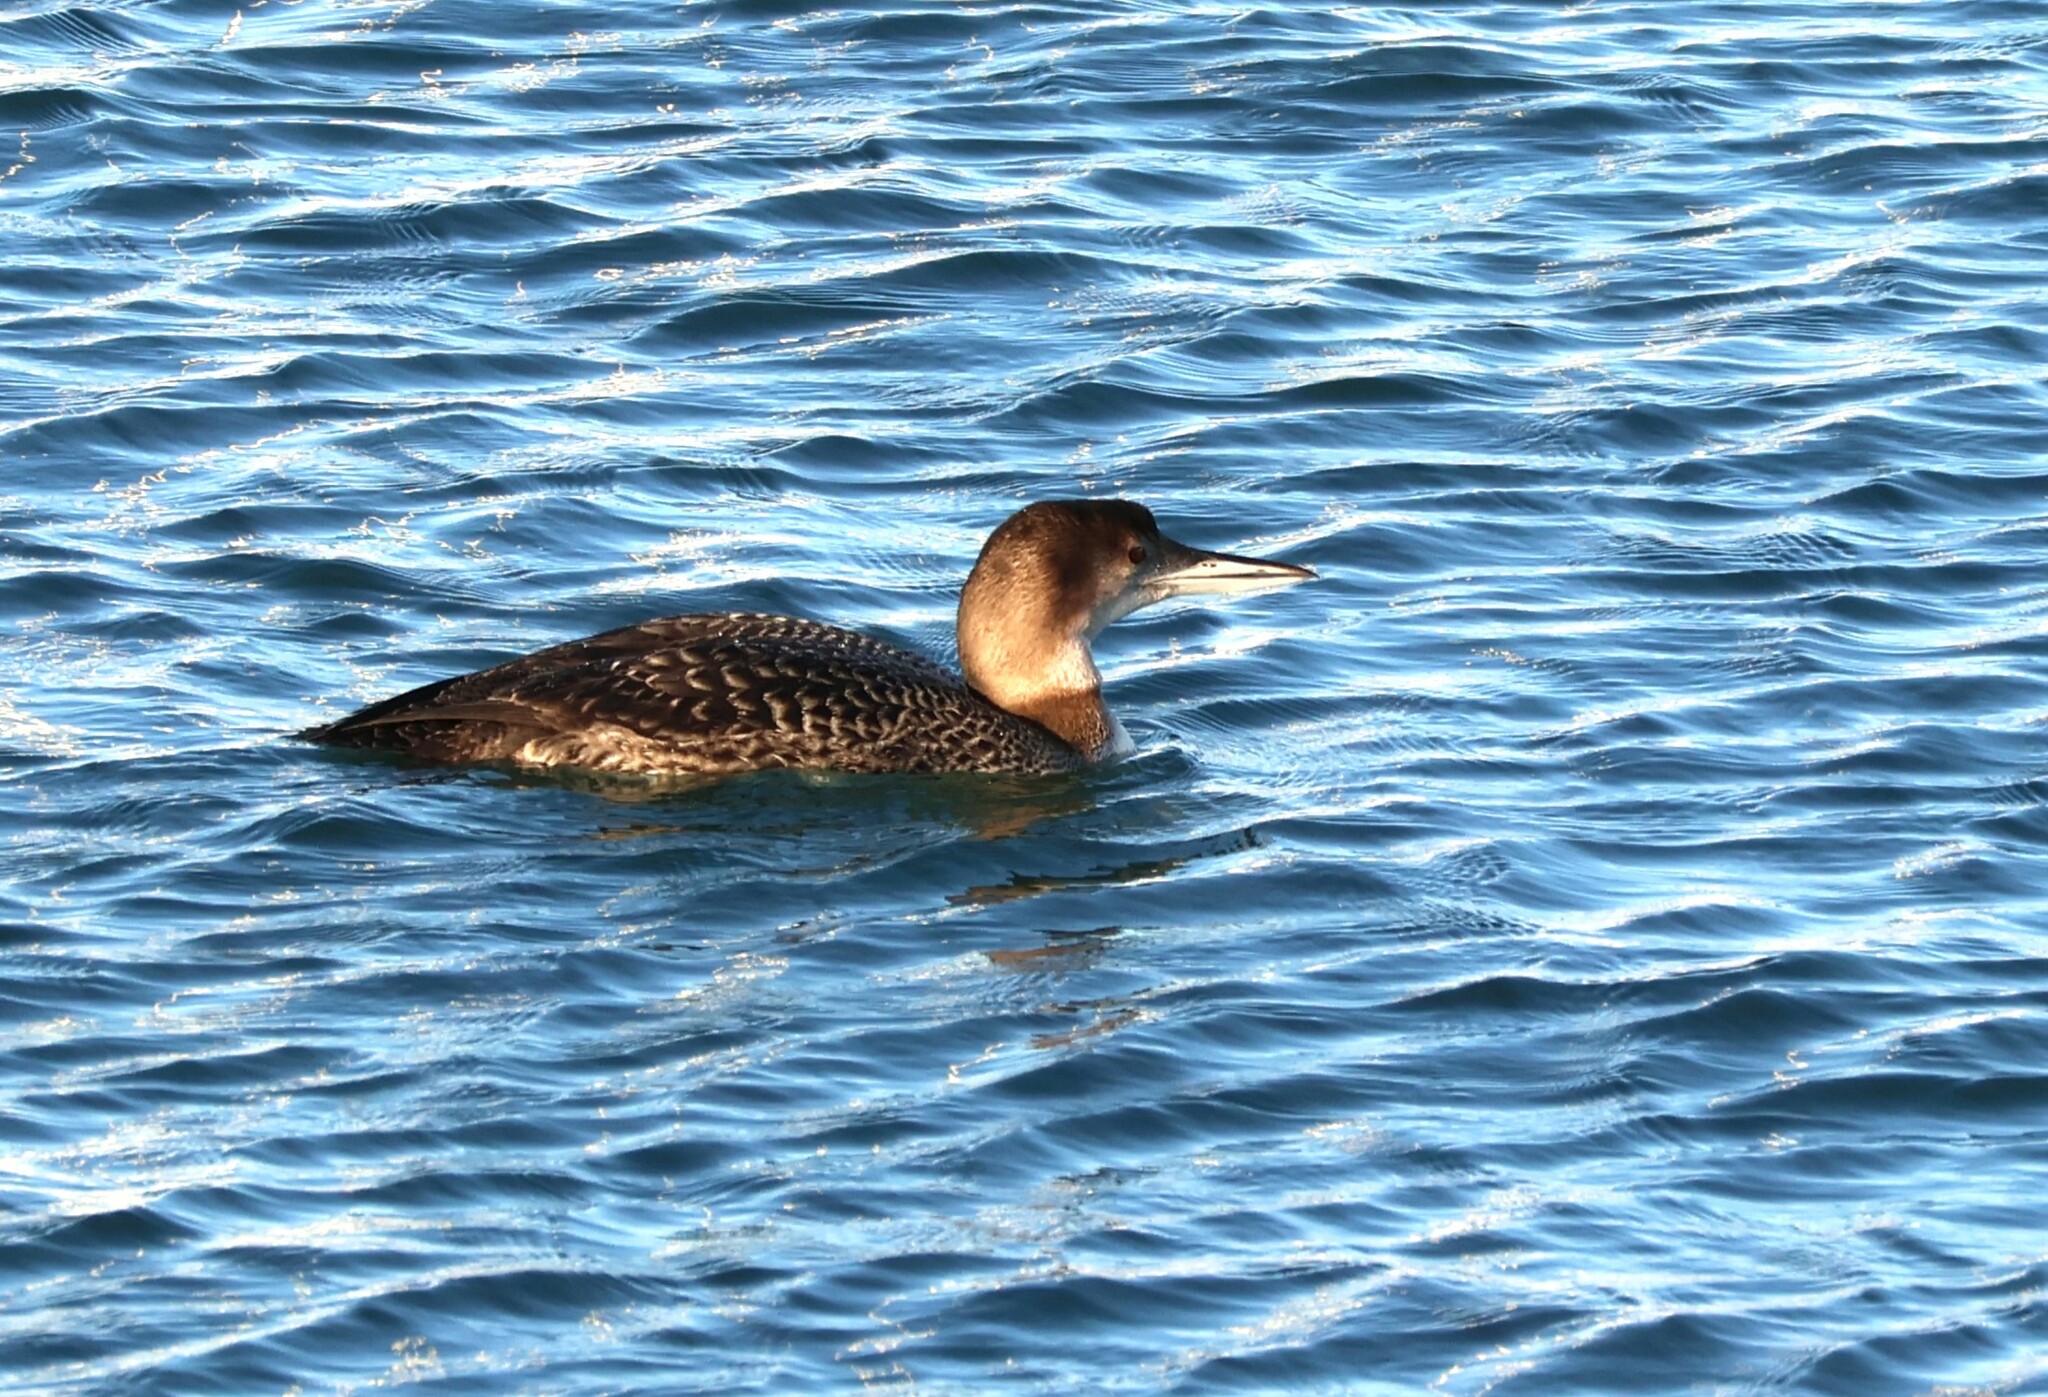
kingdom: Animalia
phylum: Chordata
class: Aves
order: Gaviiformes
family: Gaviidae
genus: Gavia
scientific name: Gavia immer
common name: Common loon
